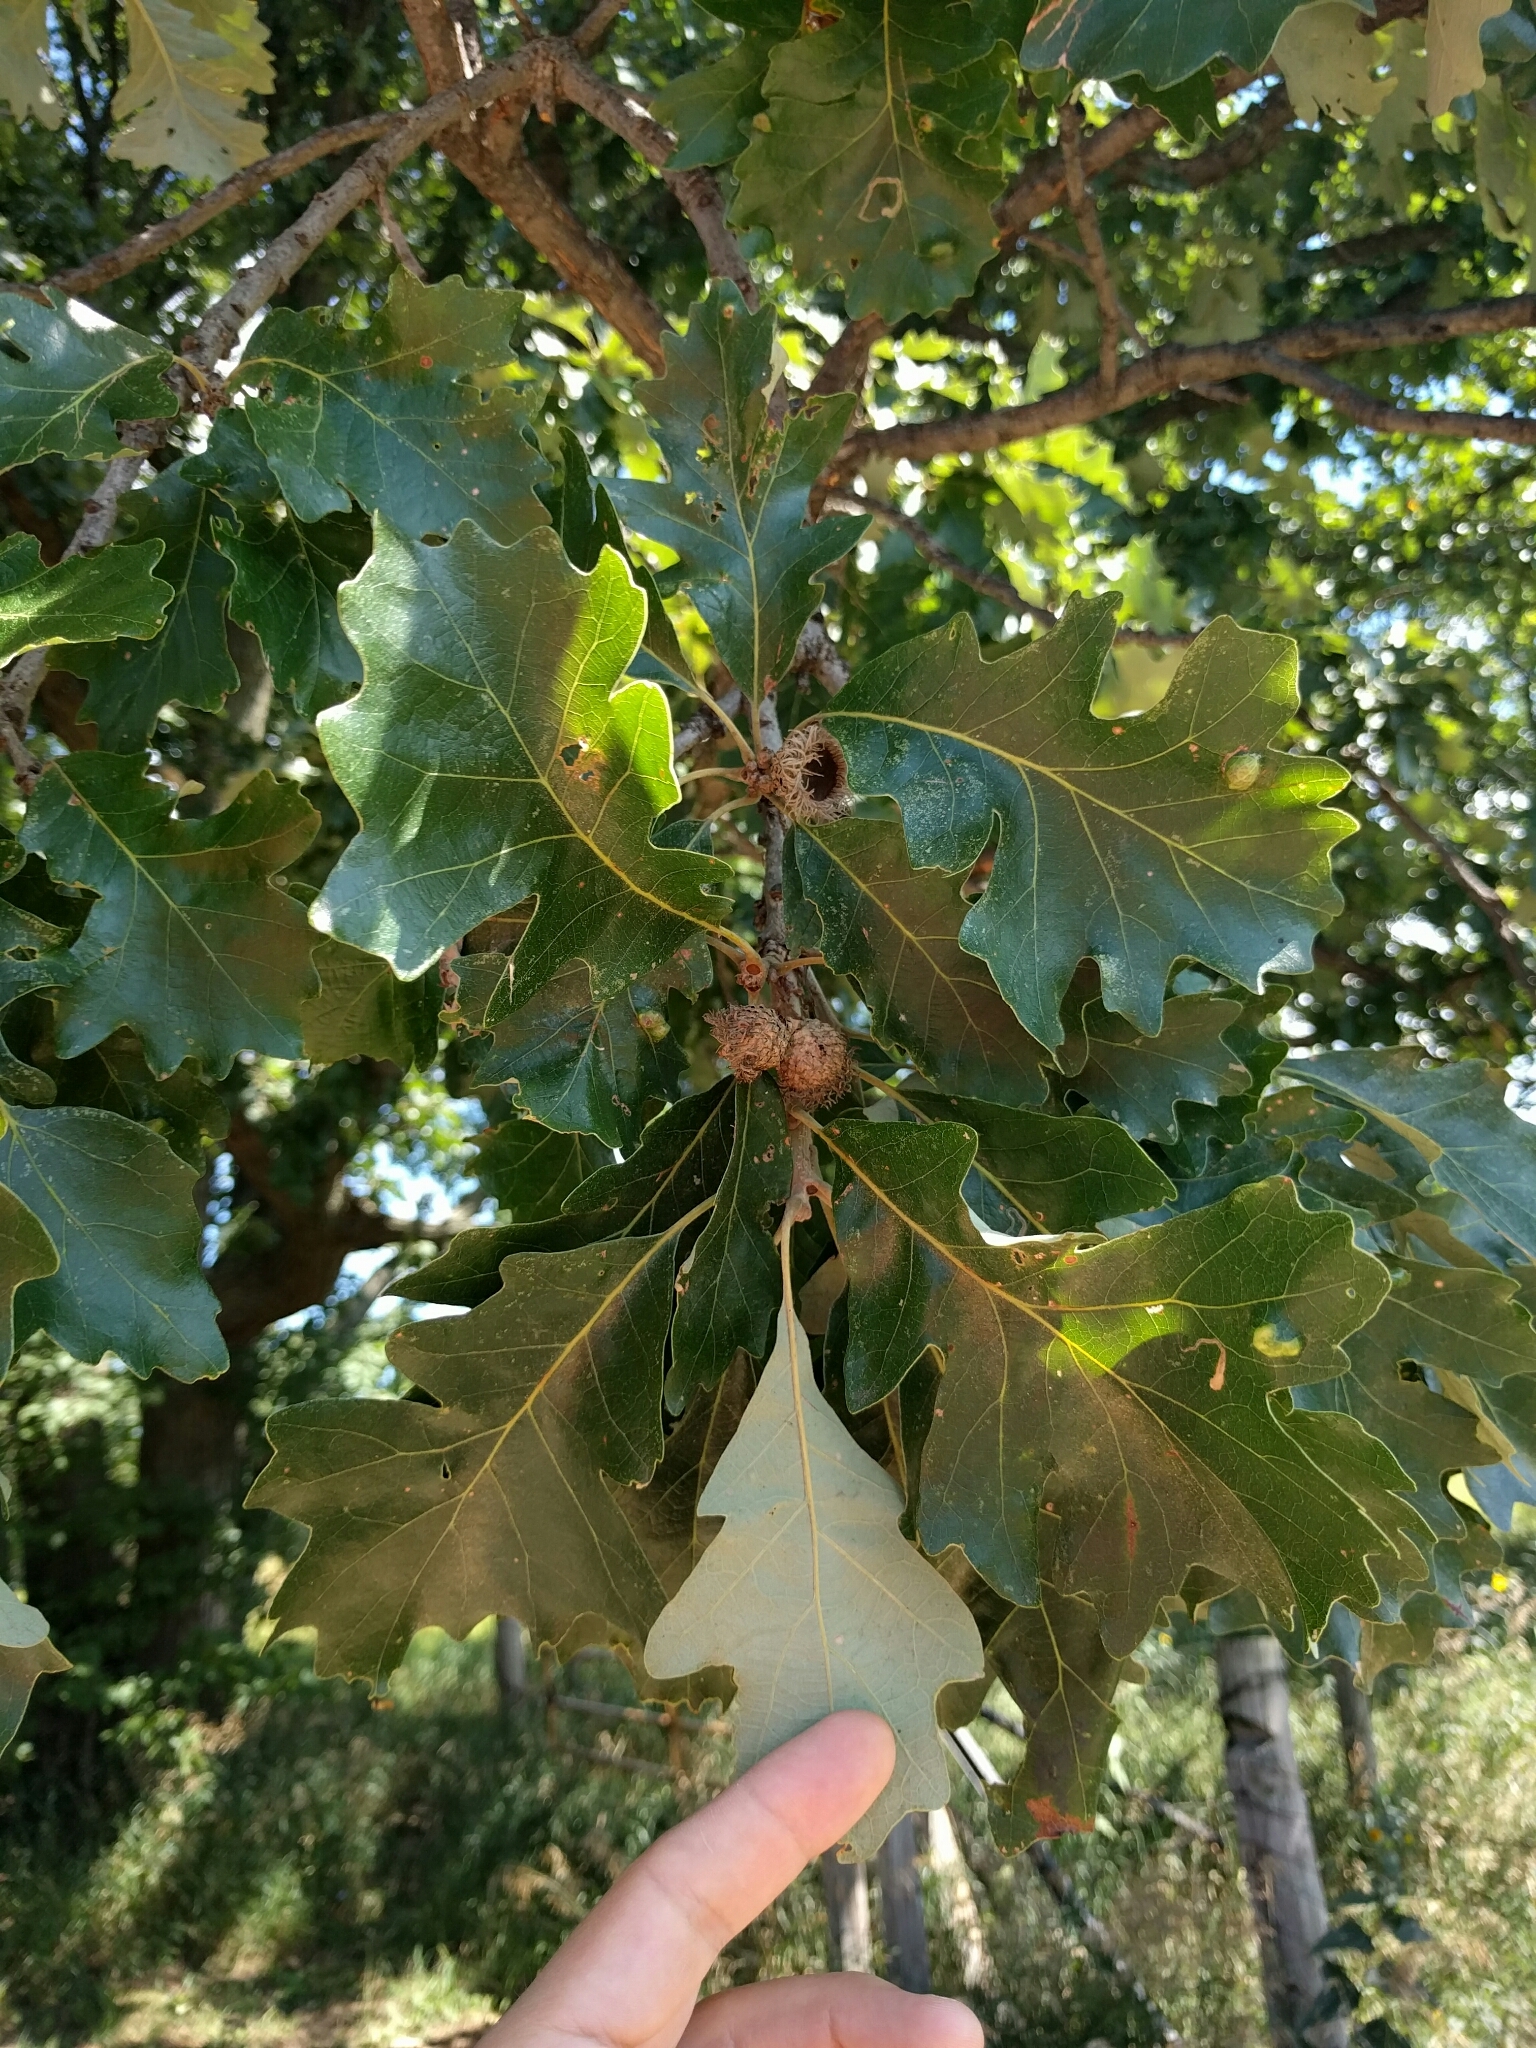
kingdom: Plantae
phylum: Tracheophyta
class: Magnoliopsida
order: Fagales
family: Fagaceae
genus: Quercus
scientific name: Quercus macrocarpa
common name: Bur oak
